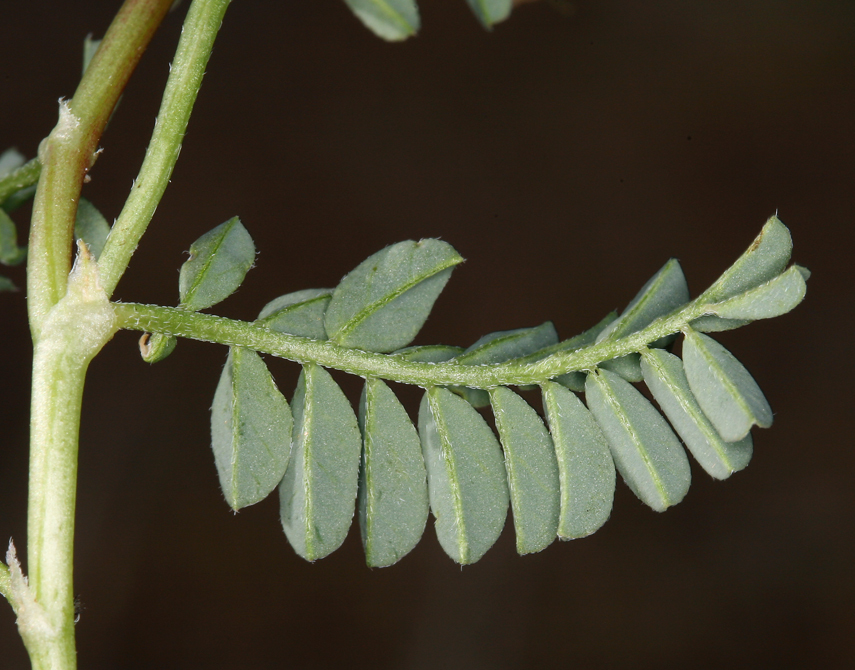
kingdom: Plantae
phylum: Tracheophyta
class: Magnoliopsida
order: Fabales
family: Fabaceae
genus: Astragalus
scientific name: Astragalus lentiginosus
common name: Freckled milkvetch
